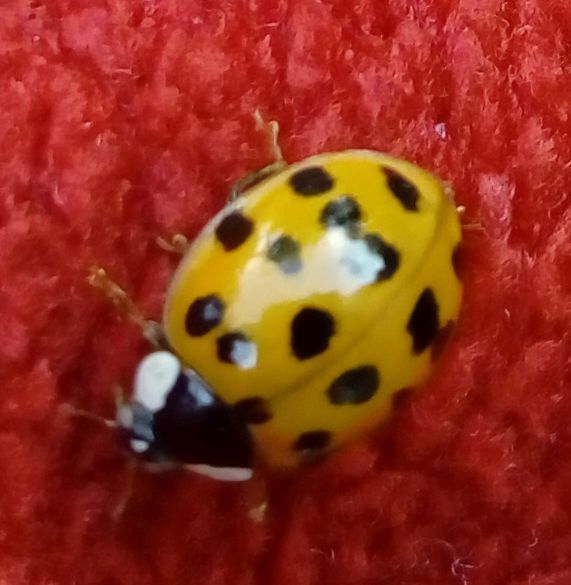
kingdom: Animalia
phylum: Arthropoda
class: Insecta
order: Coleoptera
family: Coccinellidae
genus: Harmonia
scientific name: Harmonia axyridis
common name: Harlequin ladybird
